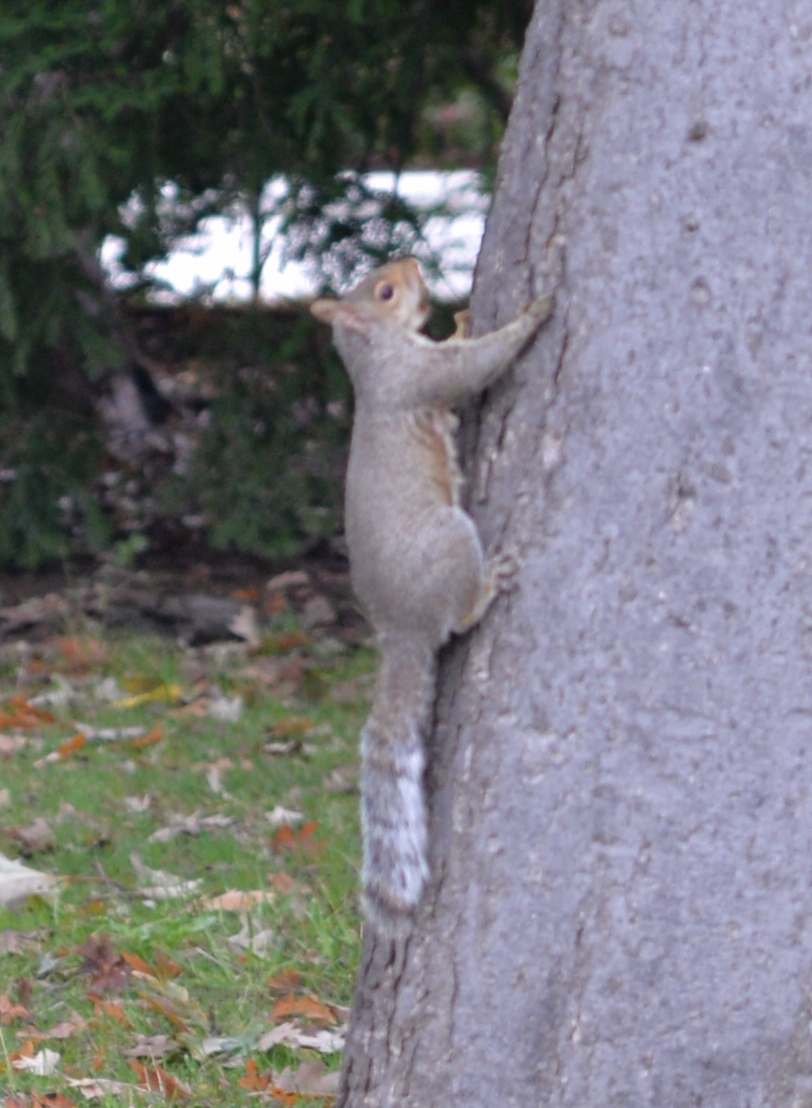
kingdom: Animalia
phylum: Chordata
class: Mammalia
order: Rodentia
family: Sciuridae
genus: Sciurus
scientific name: Sciurus carolinensis
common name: Eastern gray squirrel
